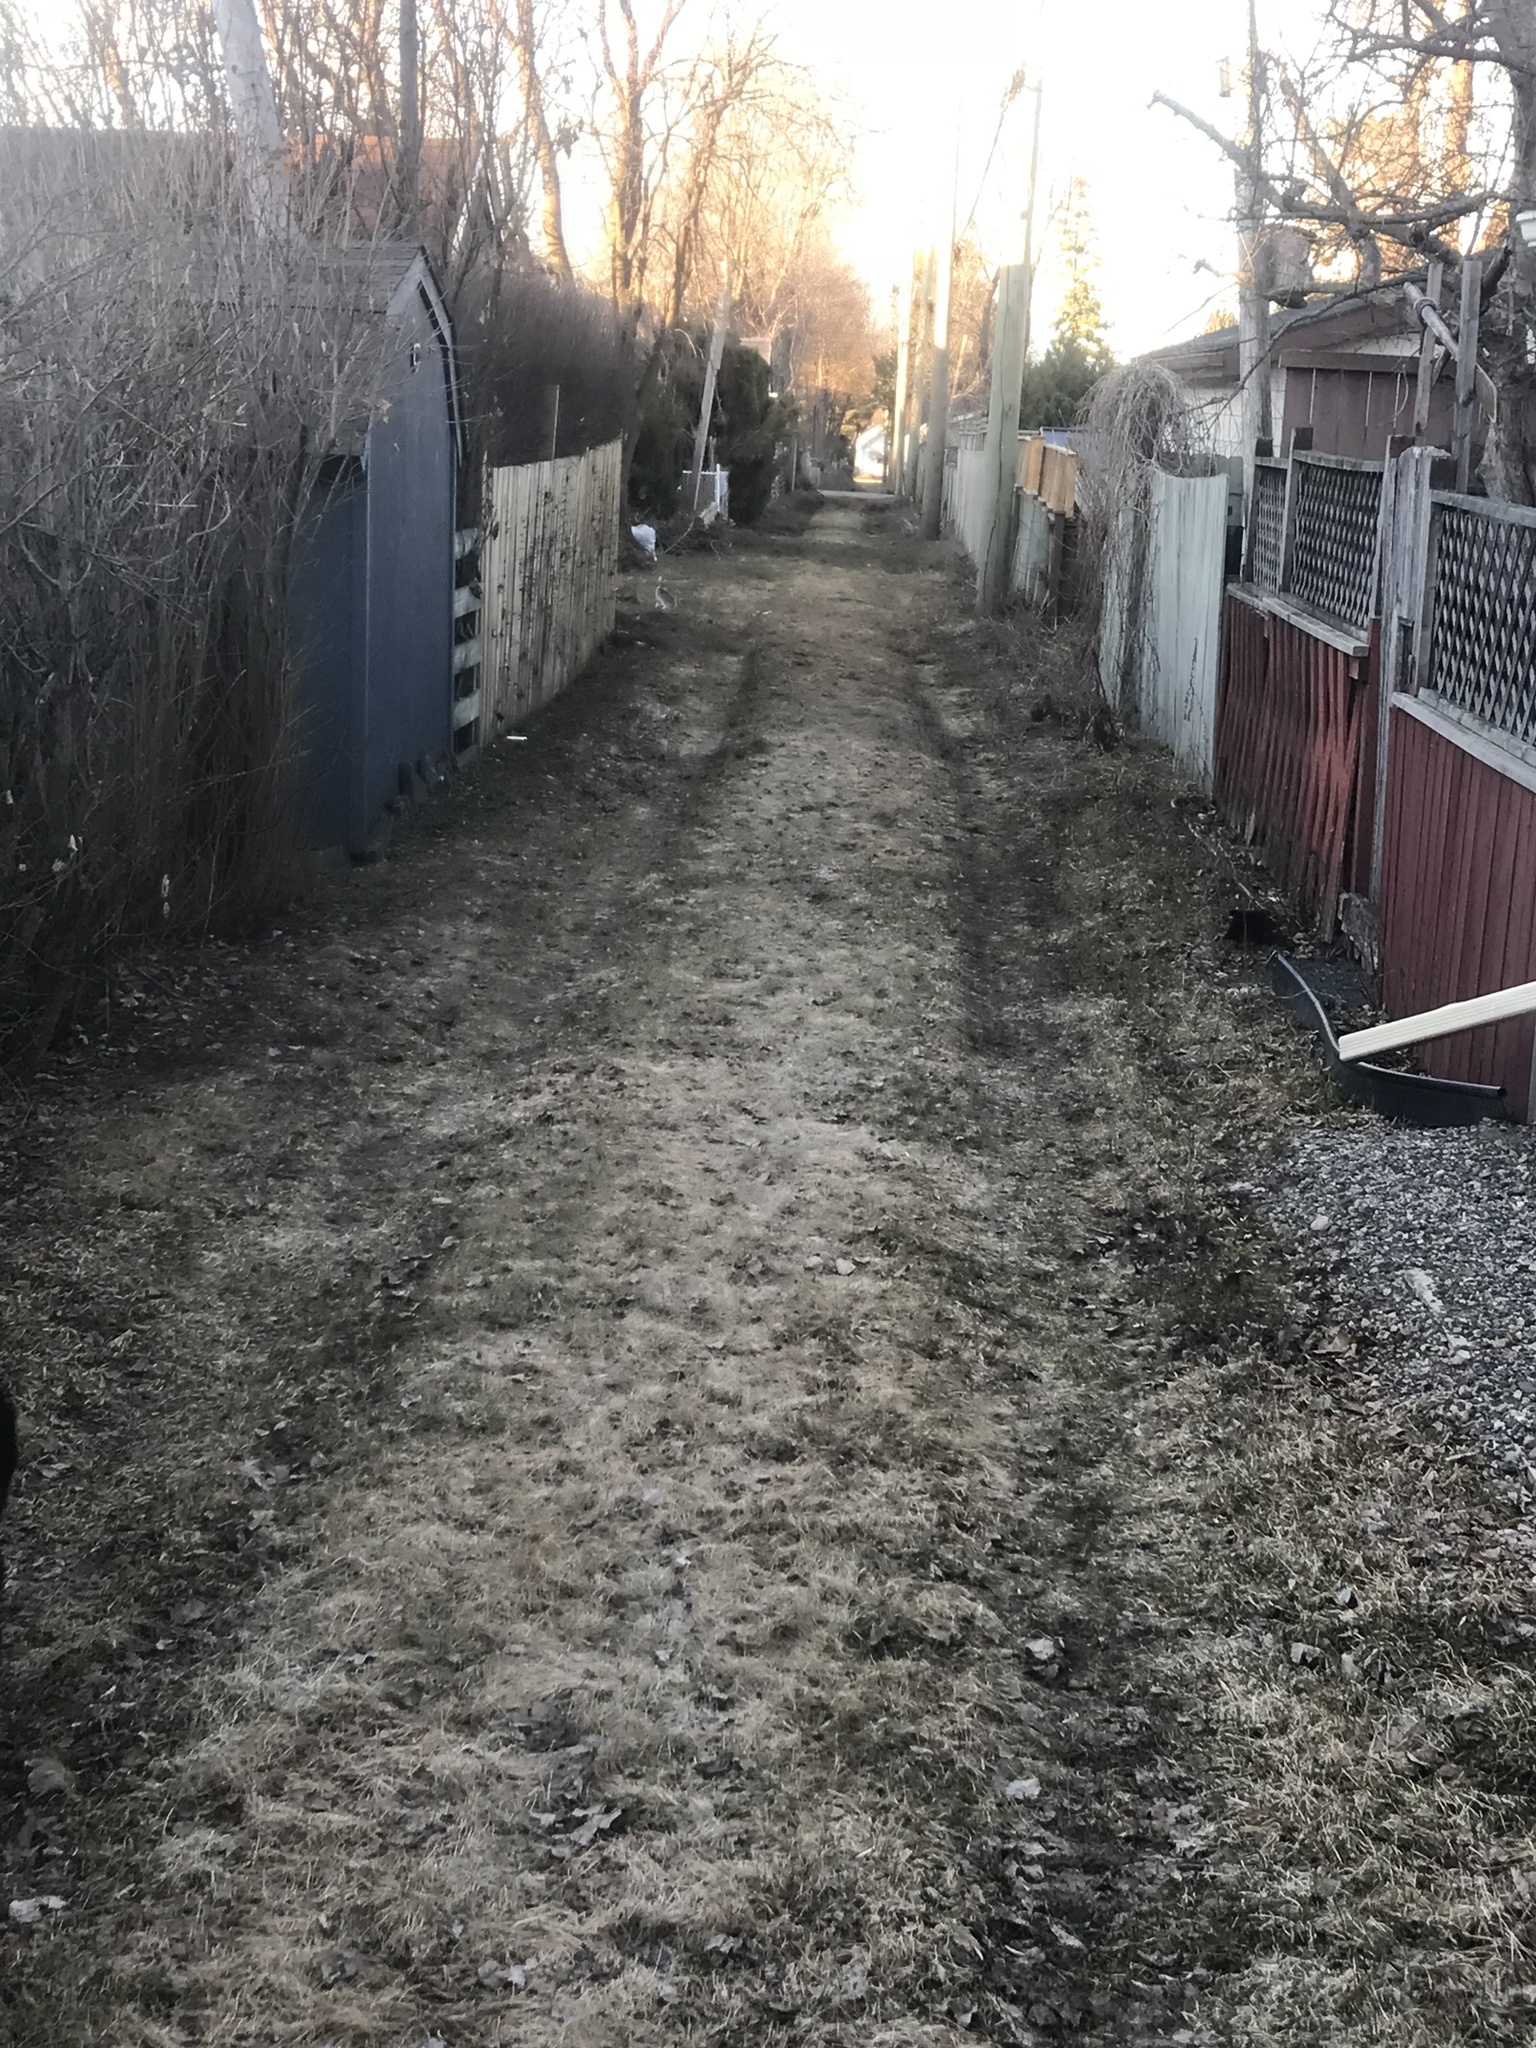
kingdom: Animalia
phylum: Chordata
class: Mammalia
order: Lagomorpha
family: Leporidae
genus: Lepus
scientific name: Lepus americanus
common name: Snowshoe hare
